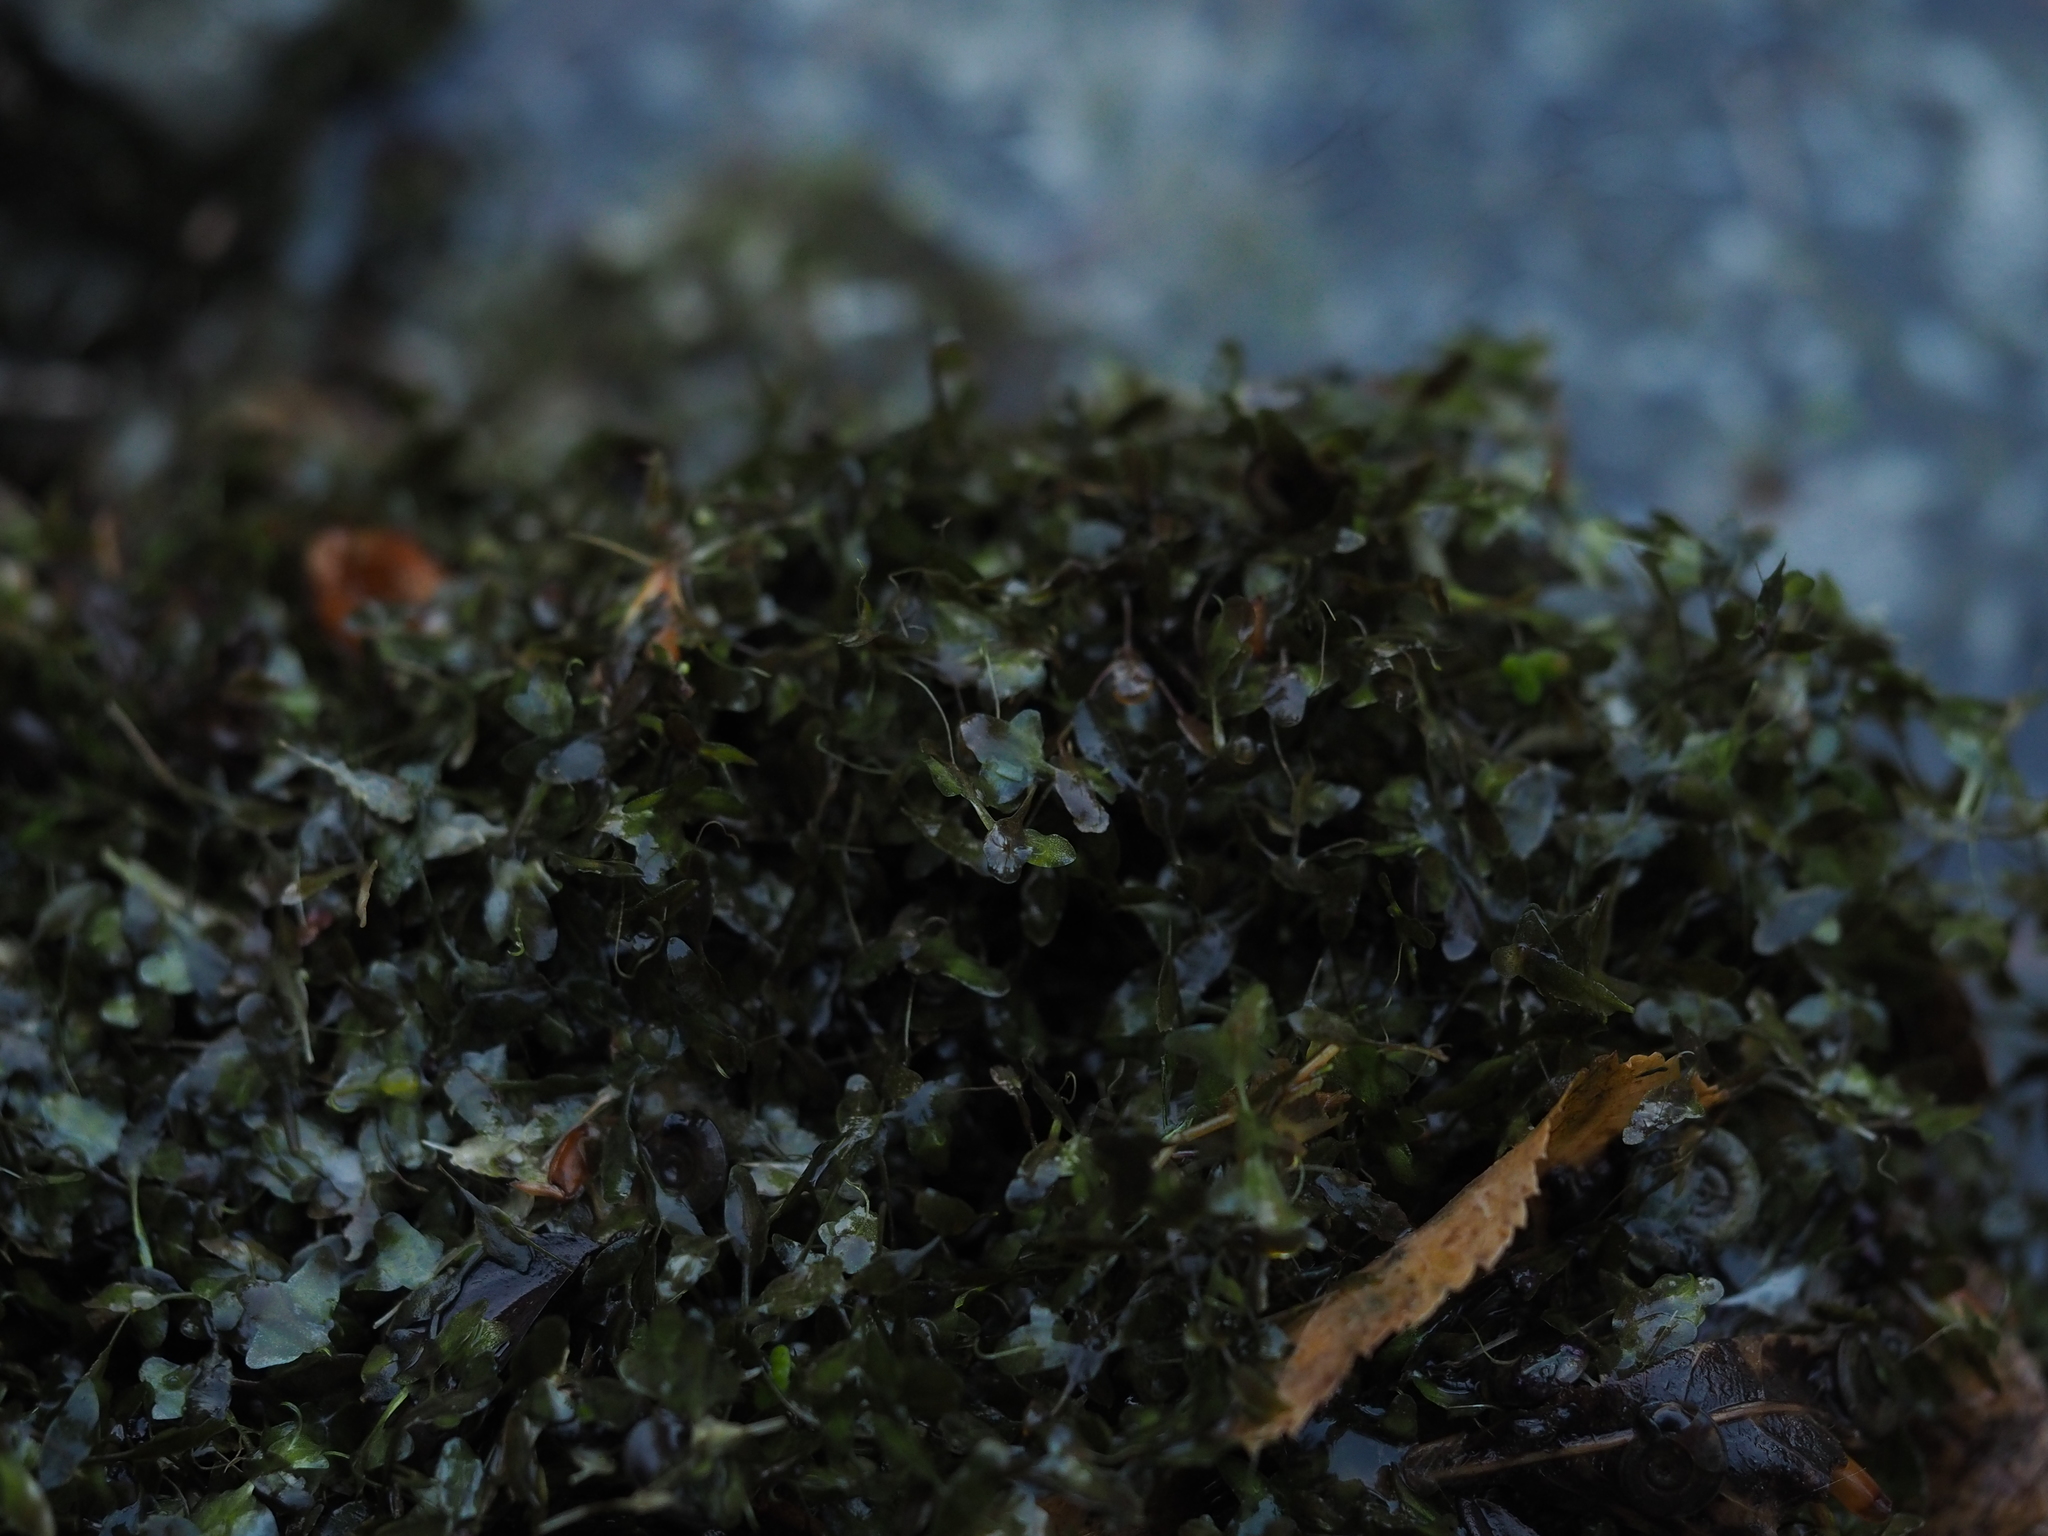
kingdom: Plantae
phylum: Tracheophyta
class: Liliopsida
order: Alismatales
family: Araceae
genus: Lemna
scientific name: Lemna trisulca
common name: Ivy-leaved duckweed
